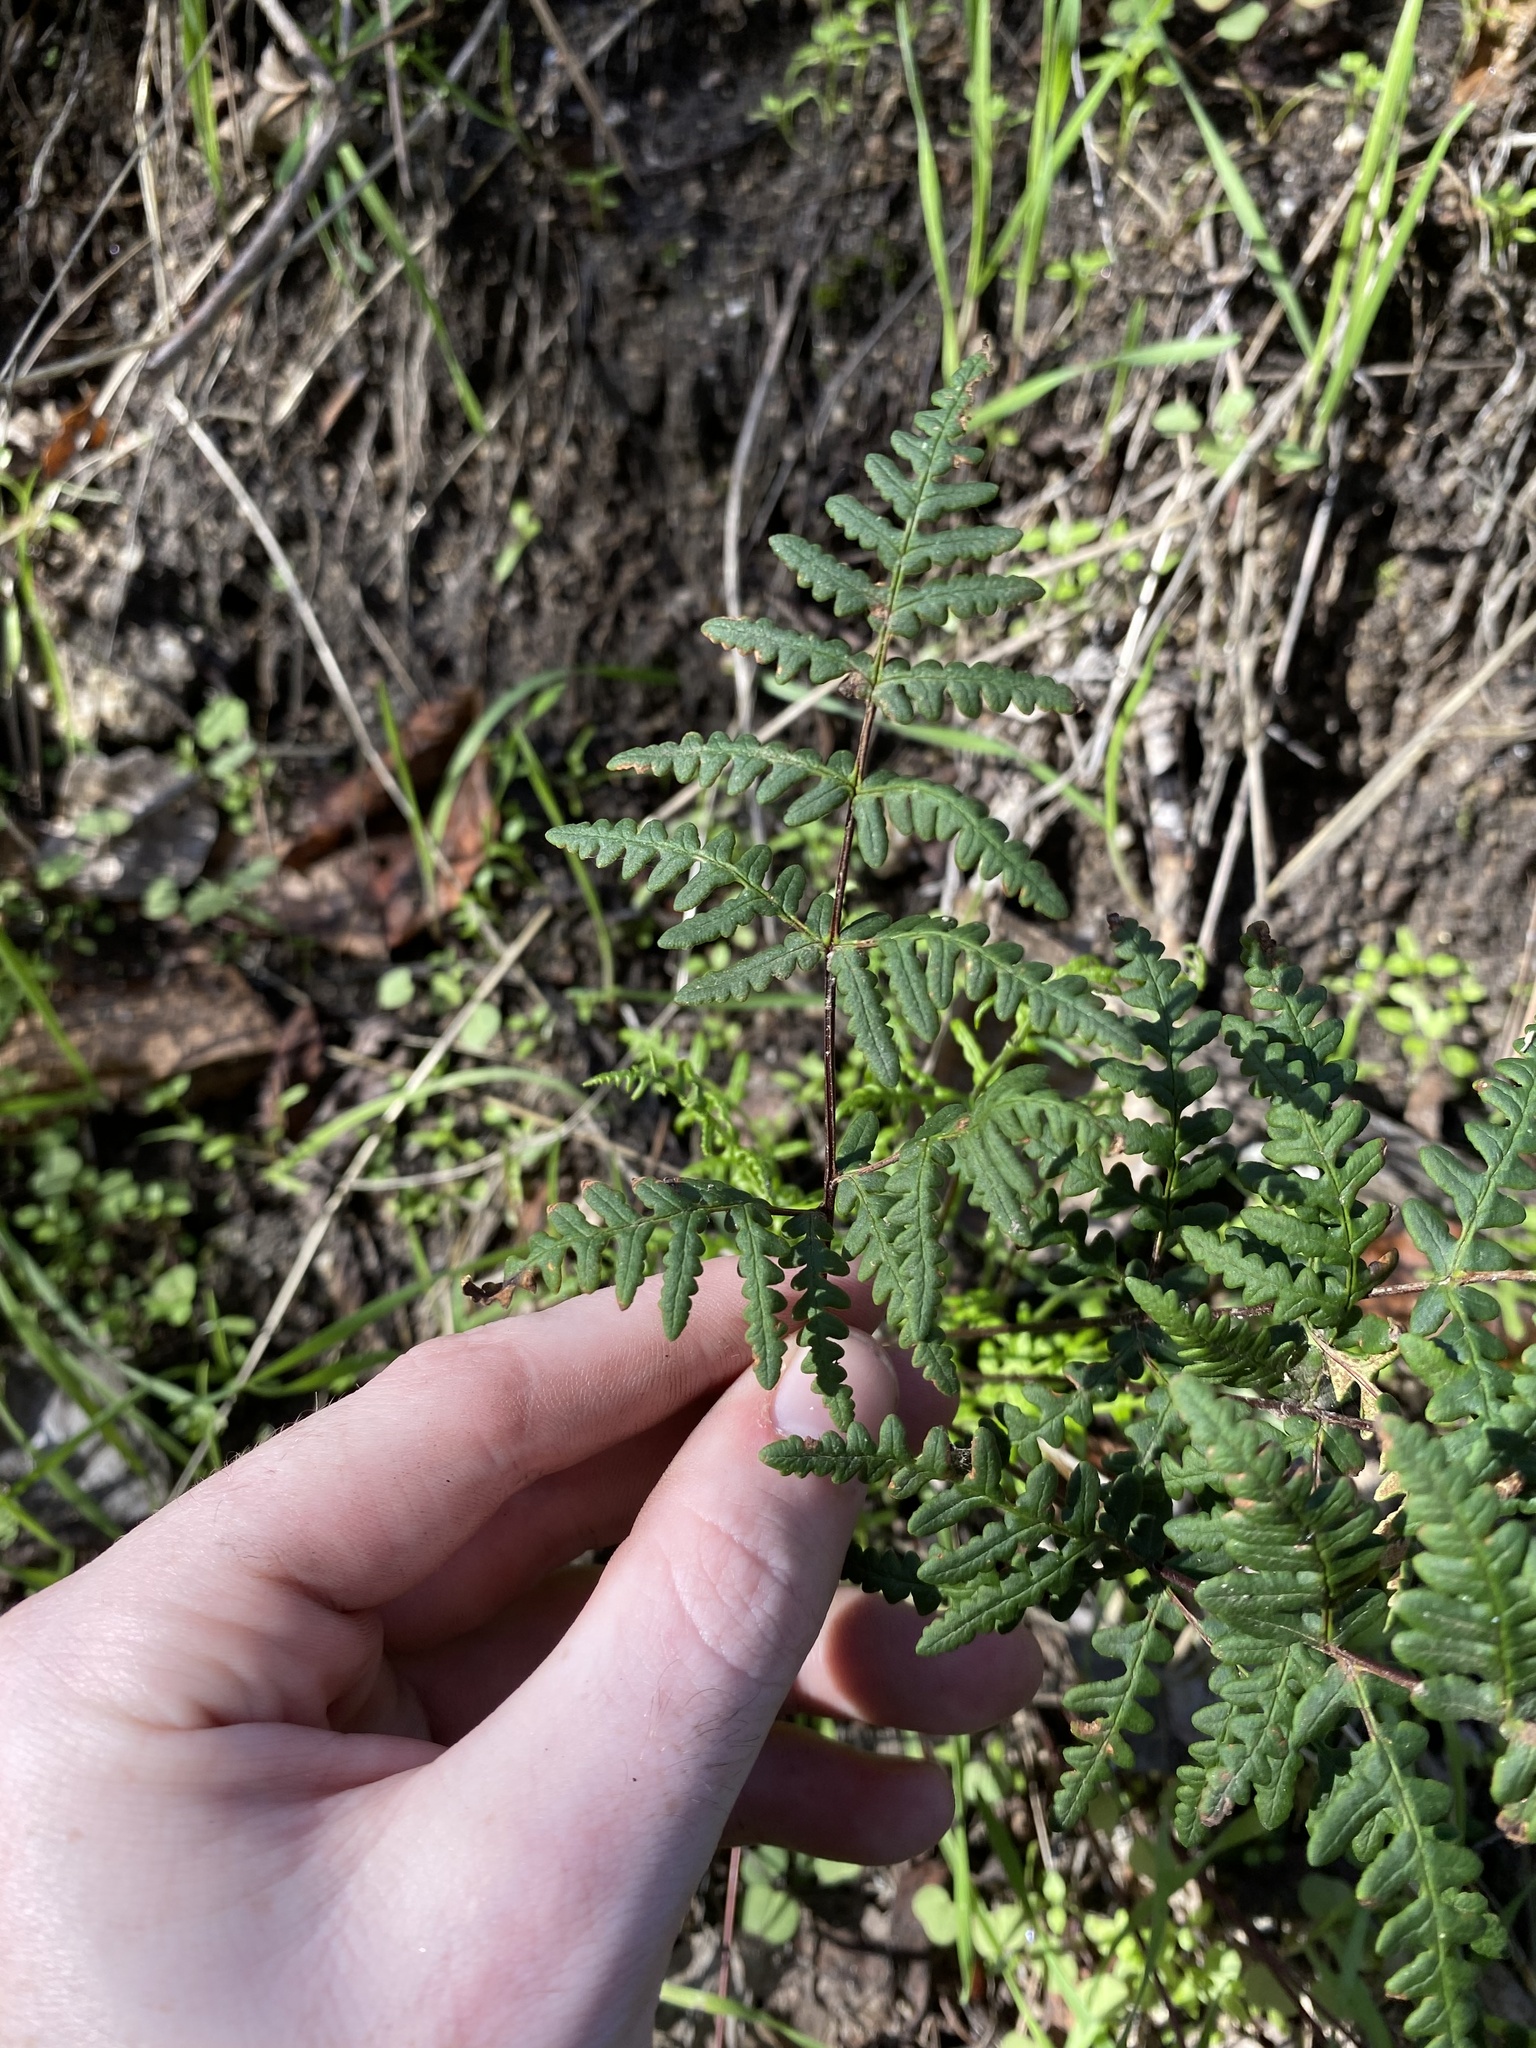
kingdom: Plantae
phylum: Tracheophyta
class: Polypodiopsida
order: Polypodiales
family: Pteridaceae
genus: Pentagramma
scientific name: Pentagramma triangularis
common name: Gold fern
